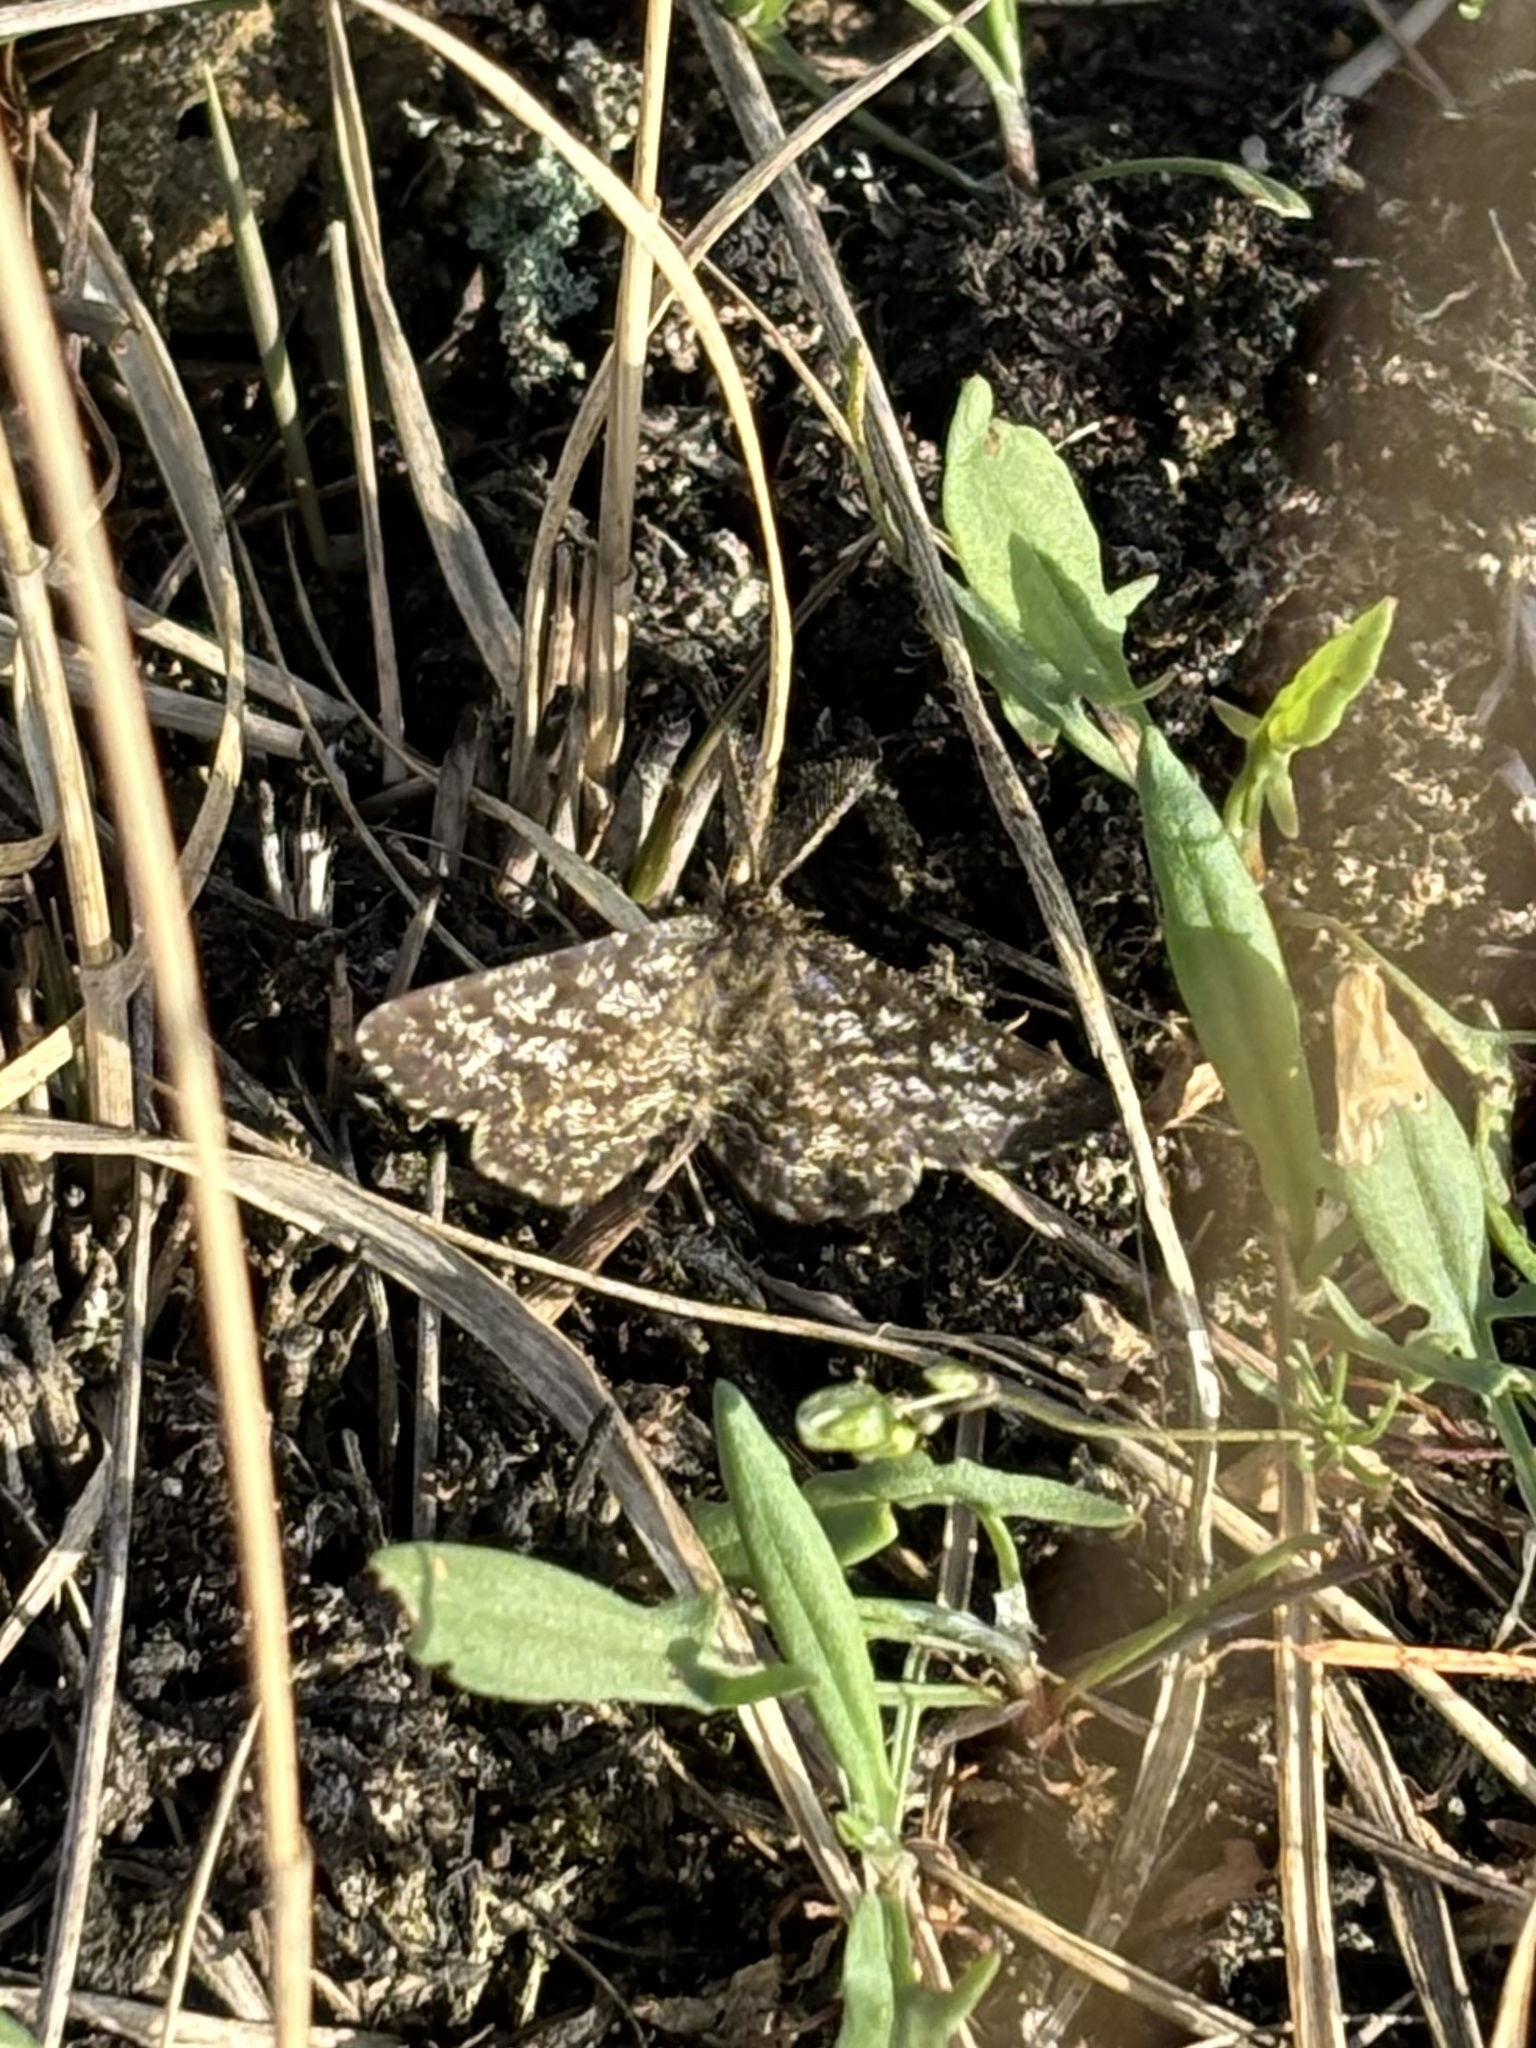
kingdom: Animalia
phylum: Arthropoda
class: Insecta
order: Lepidoptera
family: Geometridae
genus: Ematurga
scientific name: Ematurga atomaria
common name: Common heath
